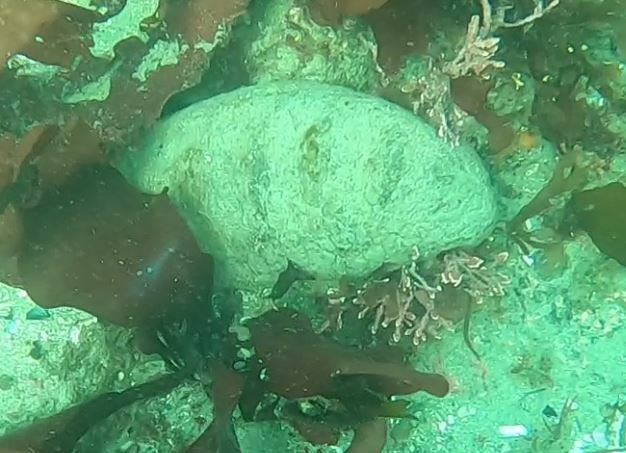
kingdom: Animalia
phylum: Mollusca
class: Polyplacophora
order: Chitonida
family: Acanthochitonidae
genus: Cryptochiton
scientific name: Cryptochiton stelleri
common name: Giant pacific chiton
